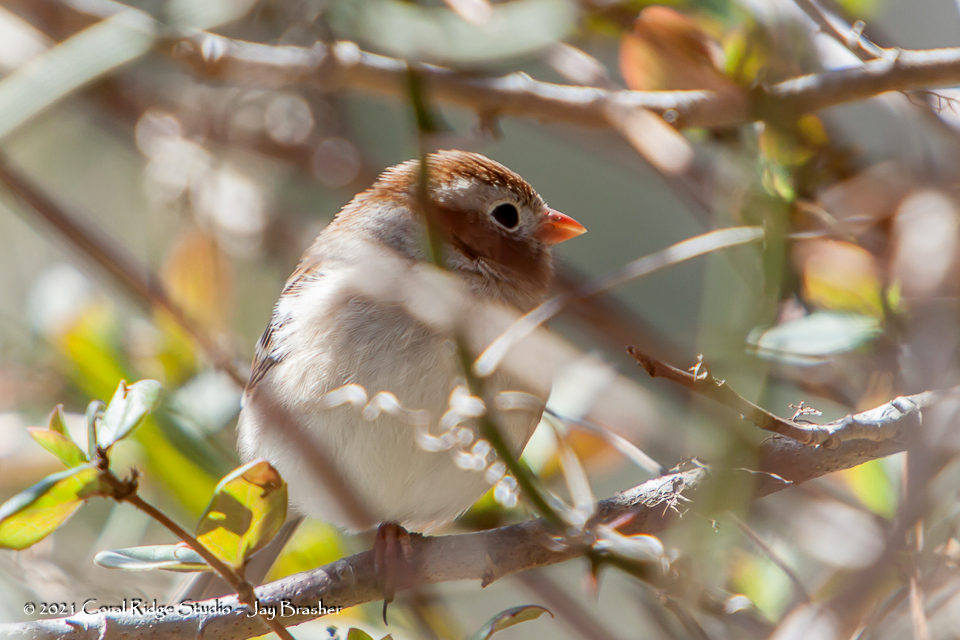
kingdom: Animalia
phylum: Chordata
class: Aves
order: Passeriformes
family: Passerellidae
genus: Spizella
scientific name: Spizella pusilla
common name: Field sparrow
